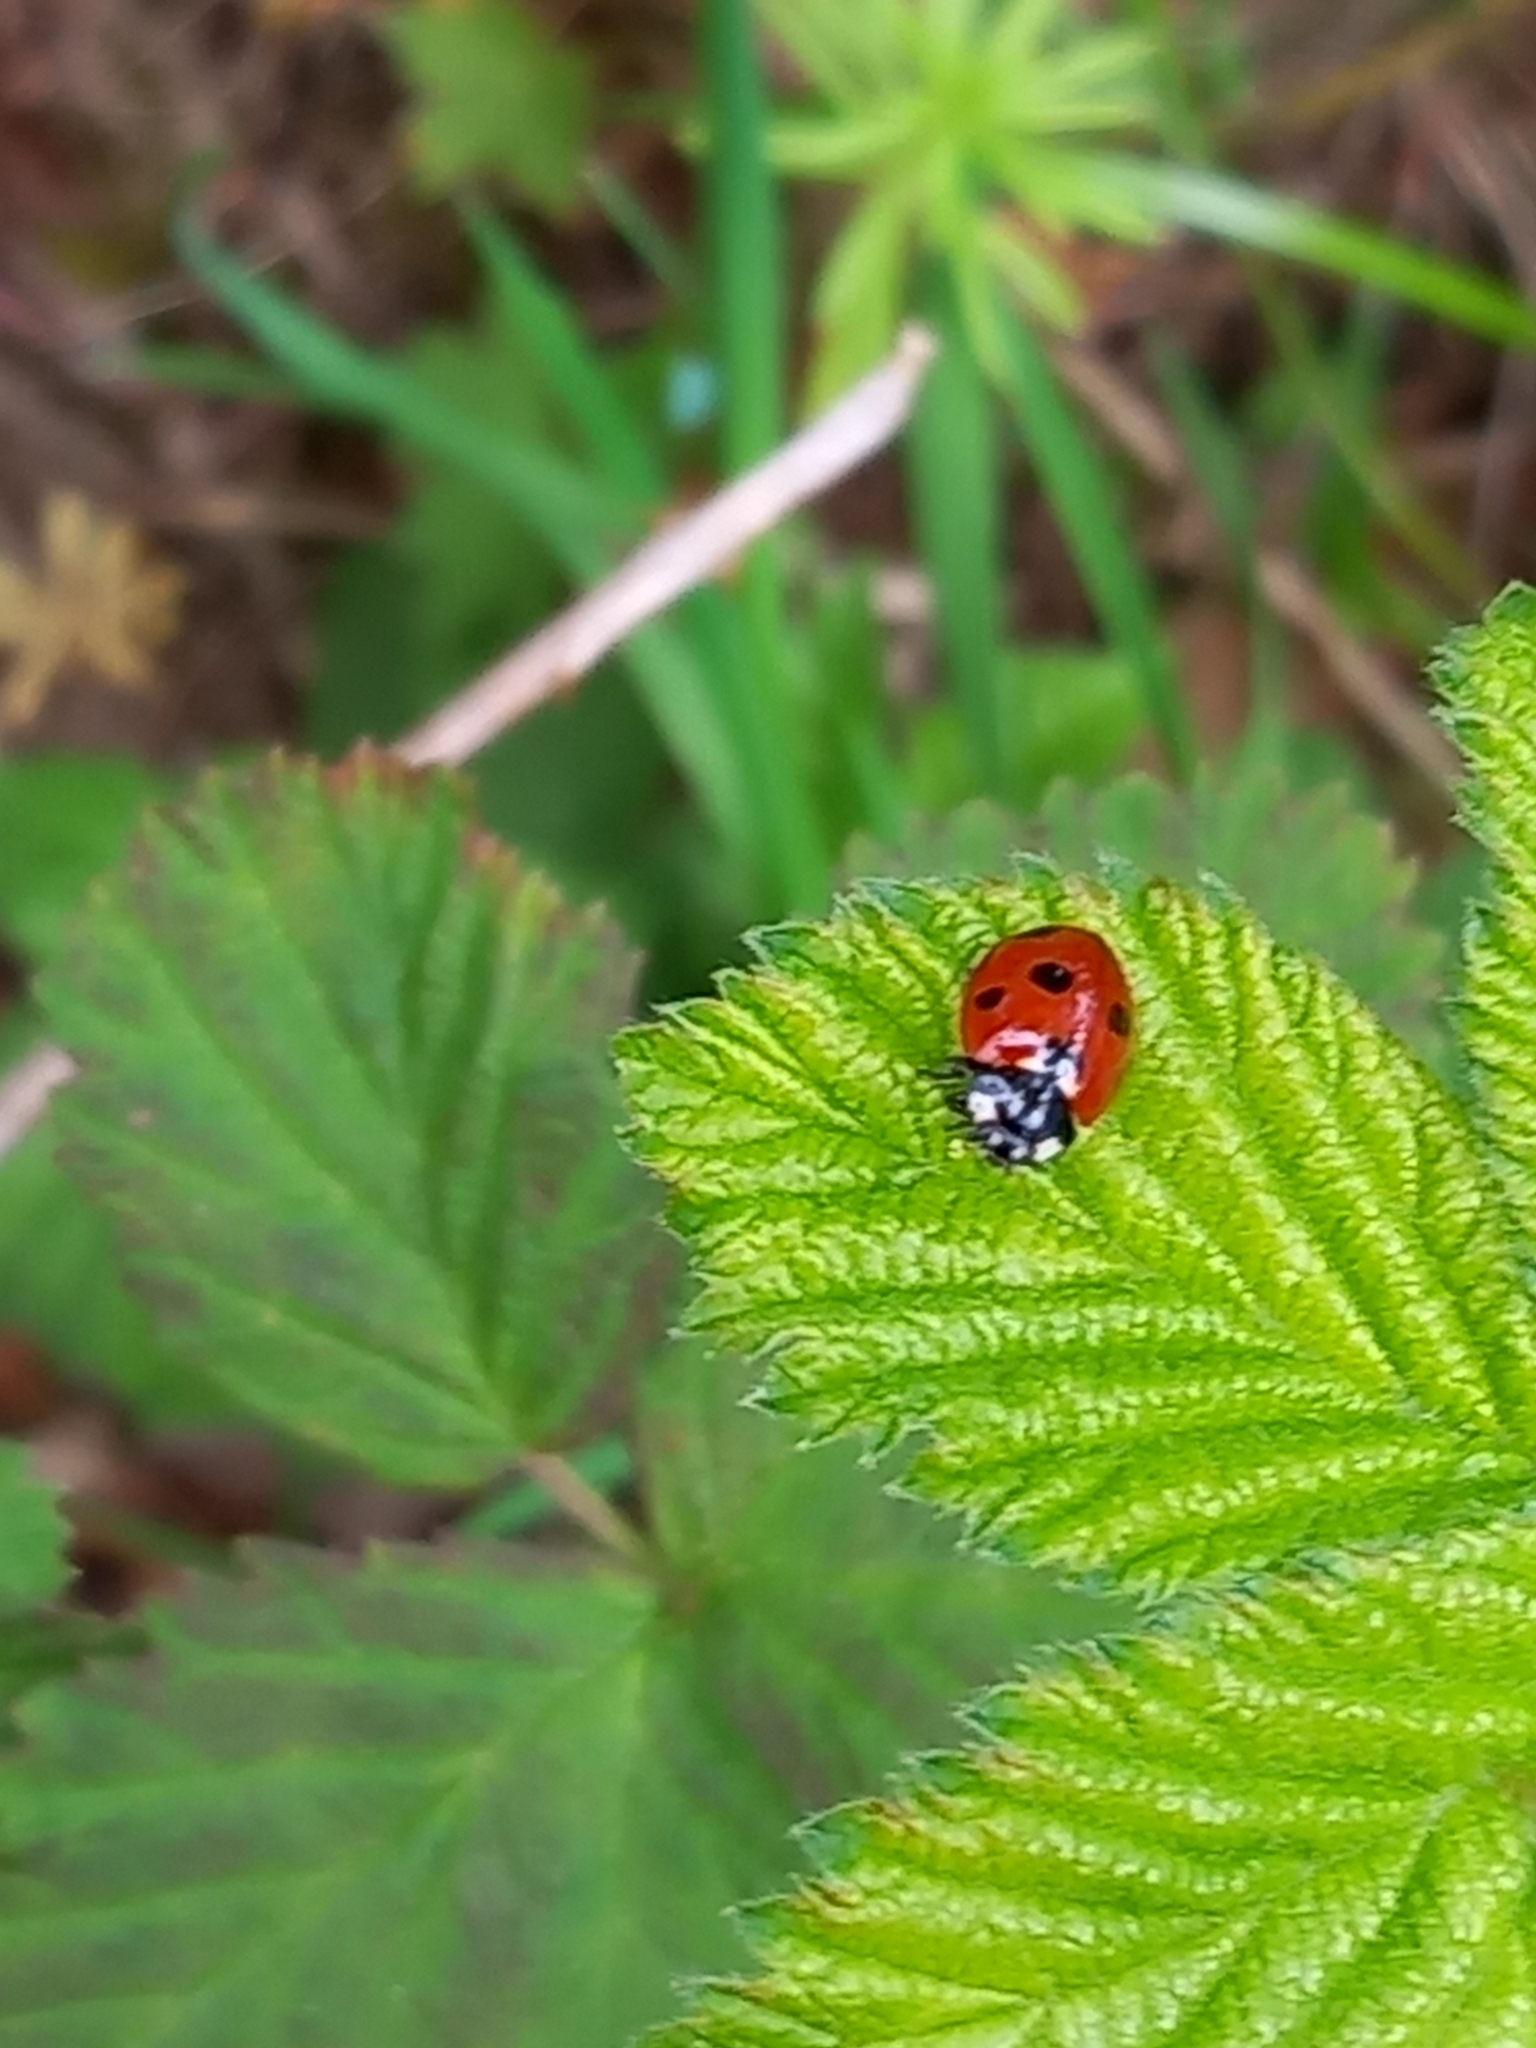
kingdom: Animalia
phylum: Arthropoda
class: Insecta
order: Coleoptera
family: Coccinellidae
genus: Coccinella
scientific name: Coccinella septempunctata
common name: Sevenspotted lady beetle
